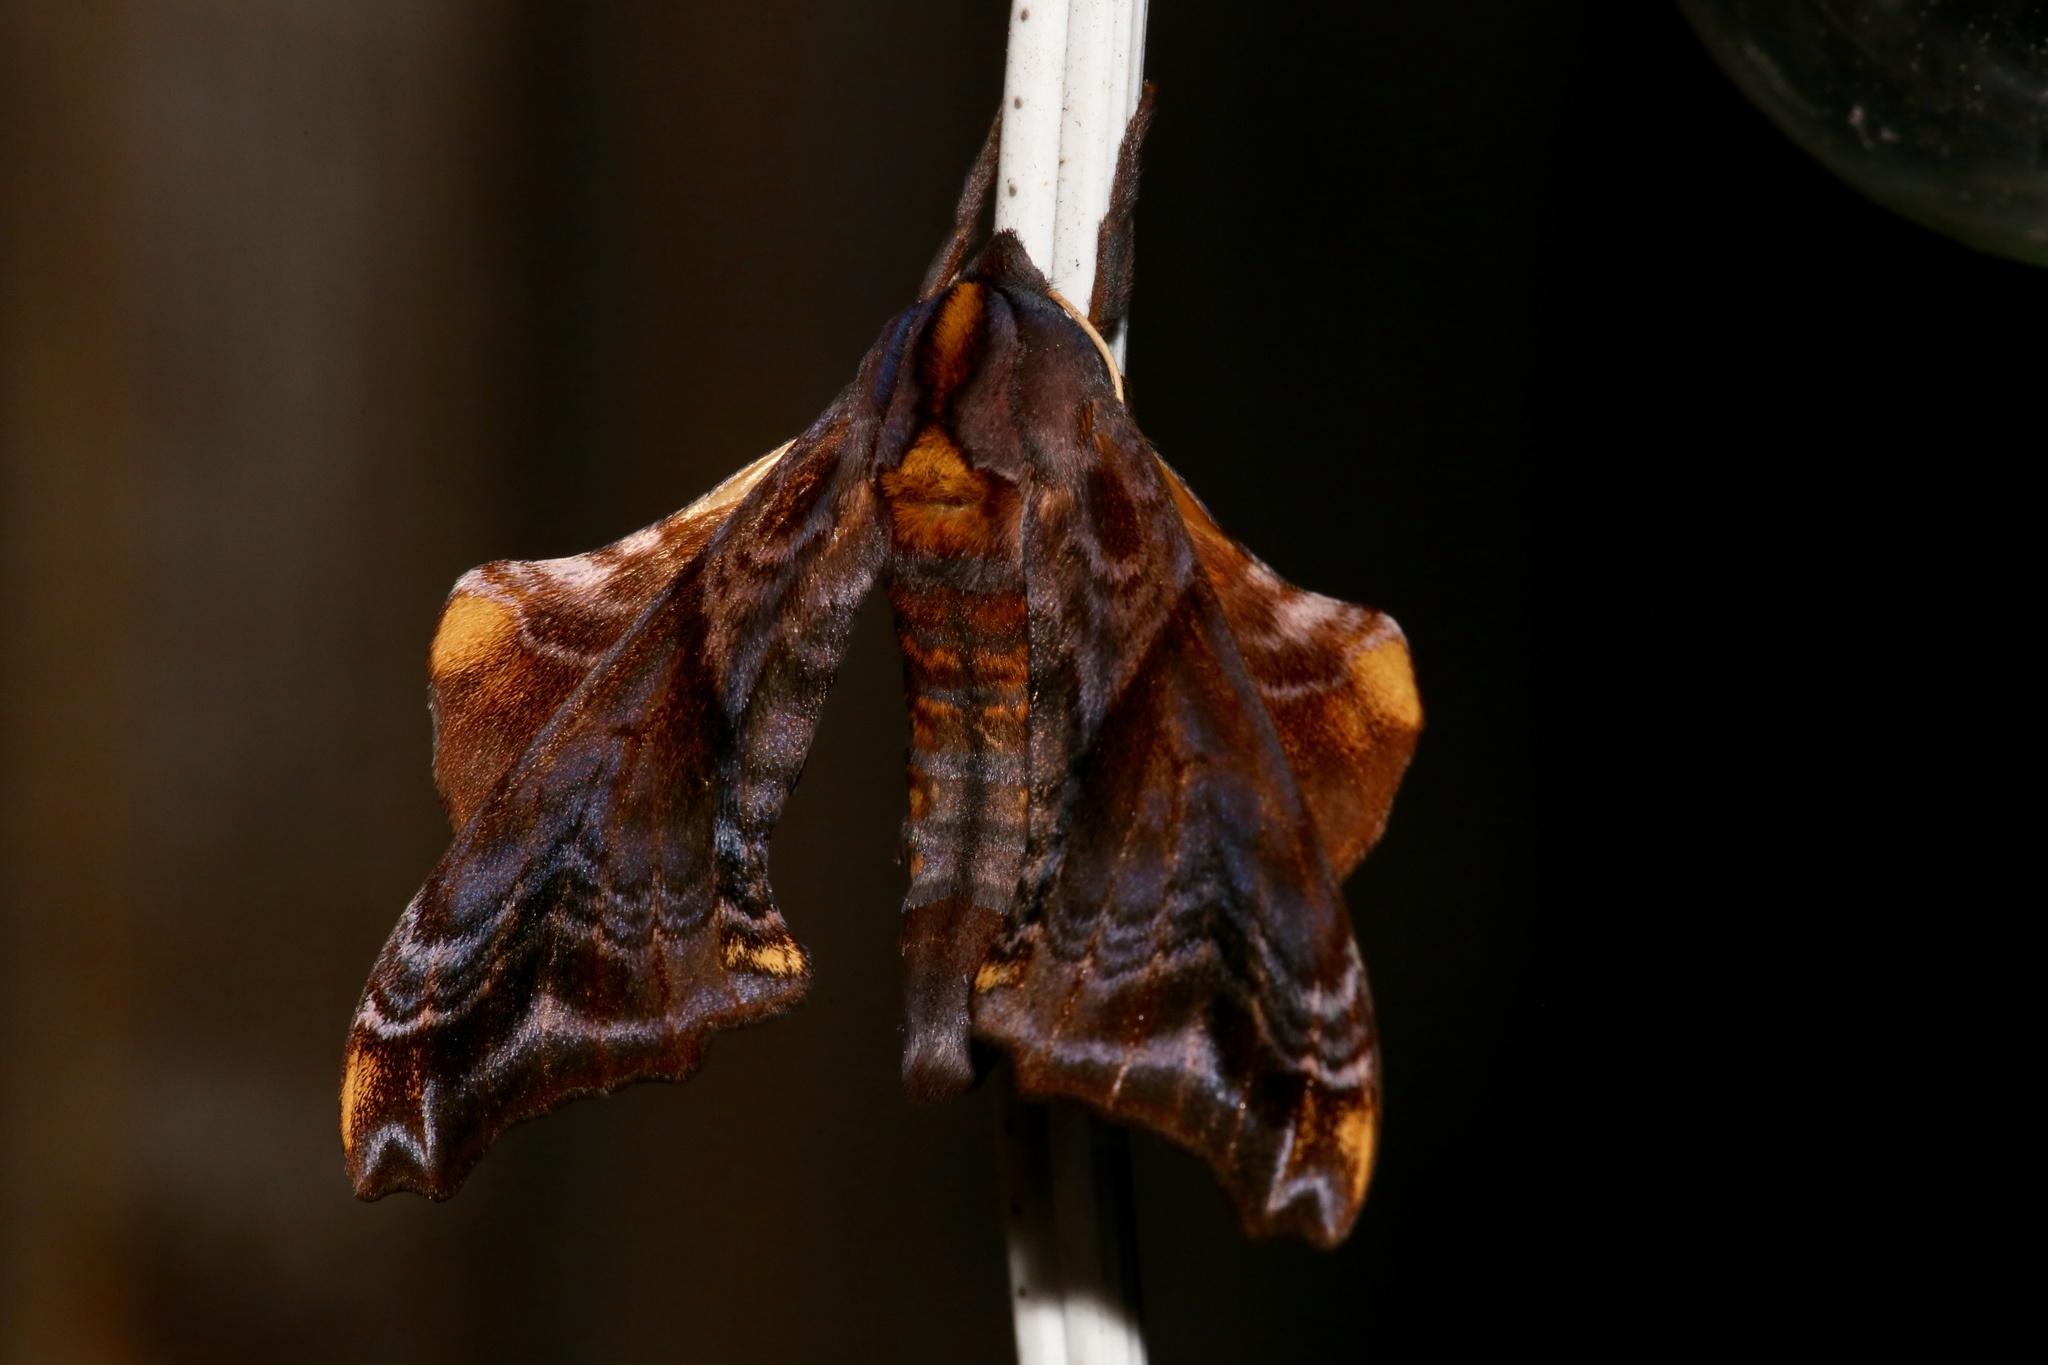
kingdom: Animalia
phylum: Arthropoda
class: Insecta
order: Lepidoptera
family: Sphingidae
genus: Paonias
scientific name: Paonias myops
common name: Small-eyed sphinx
